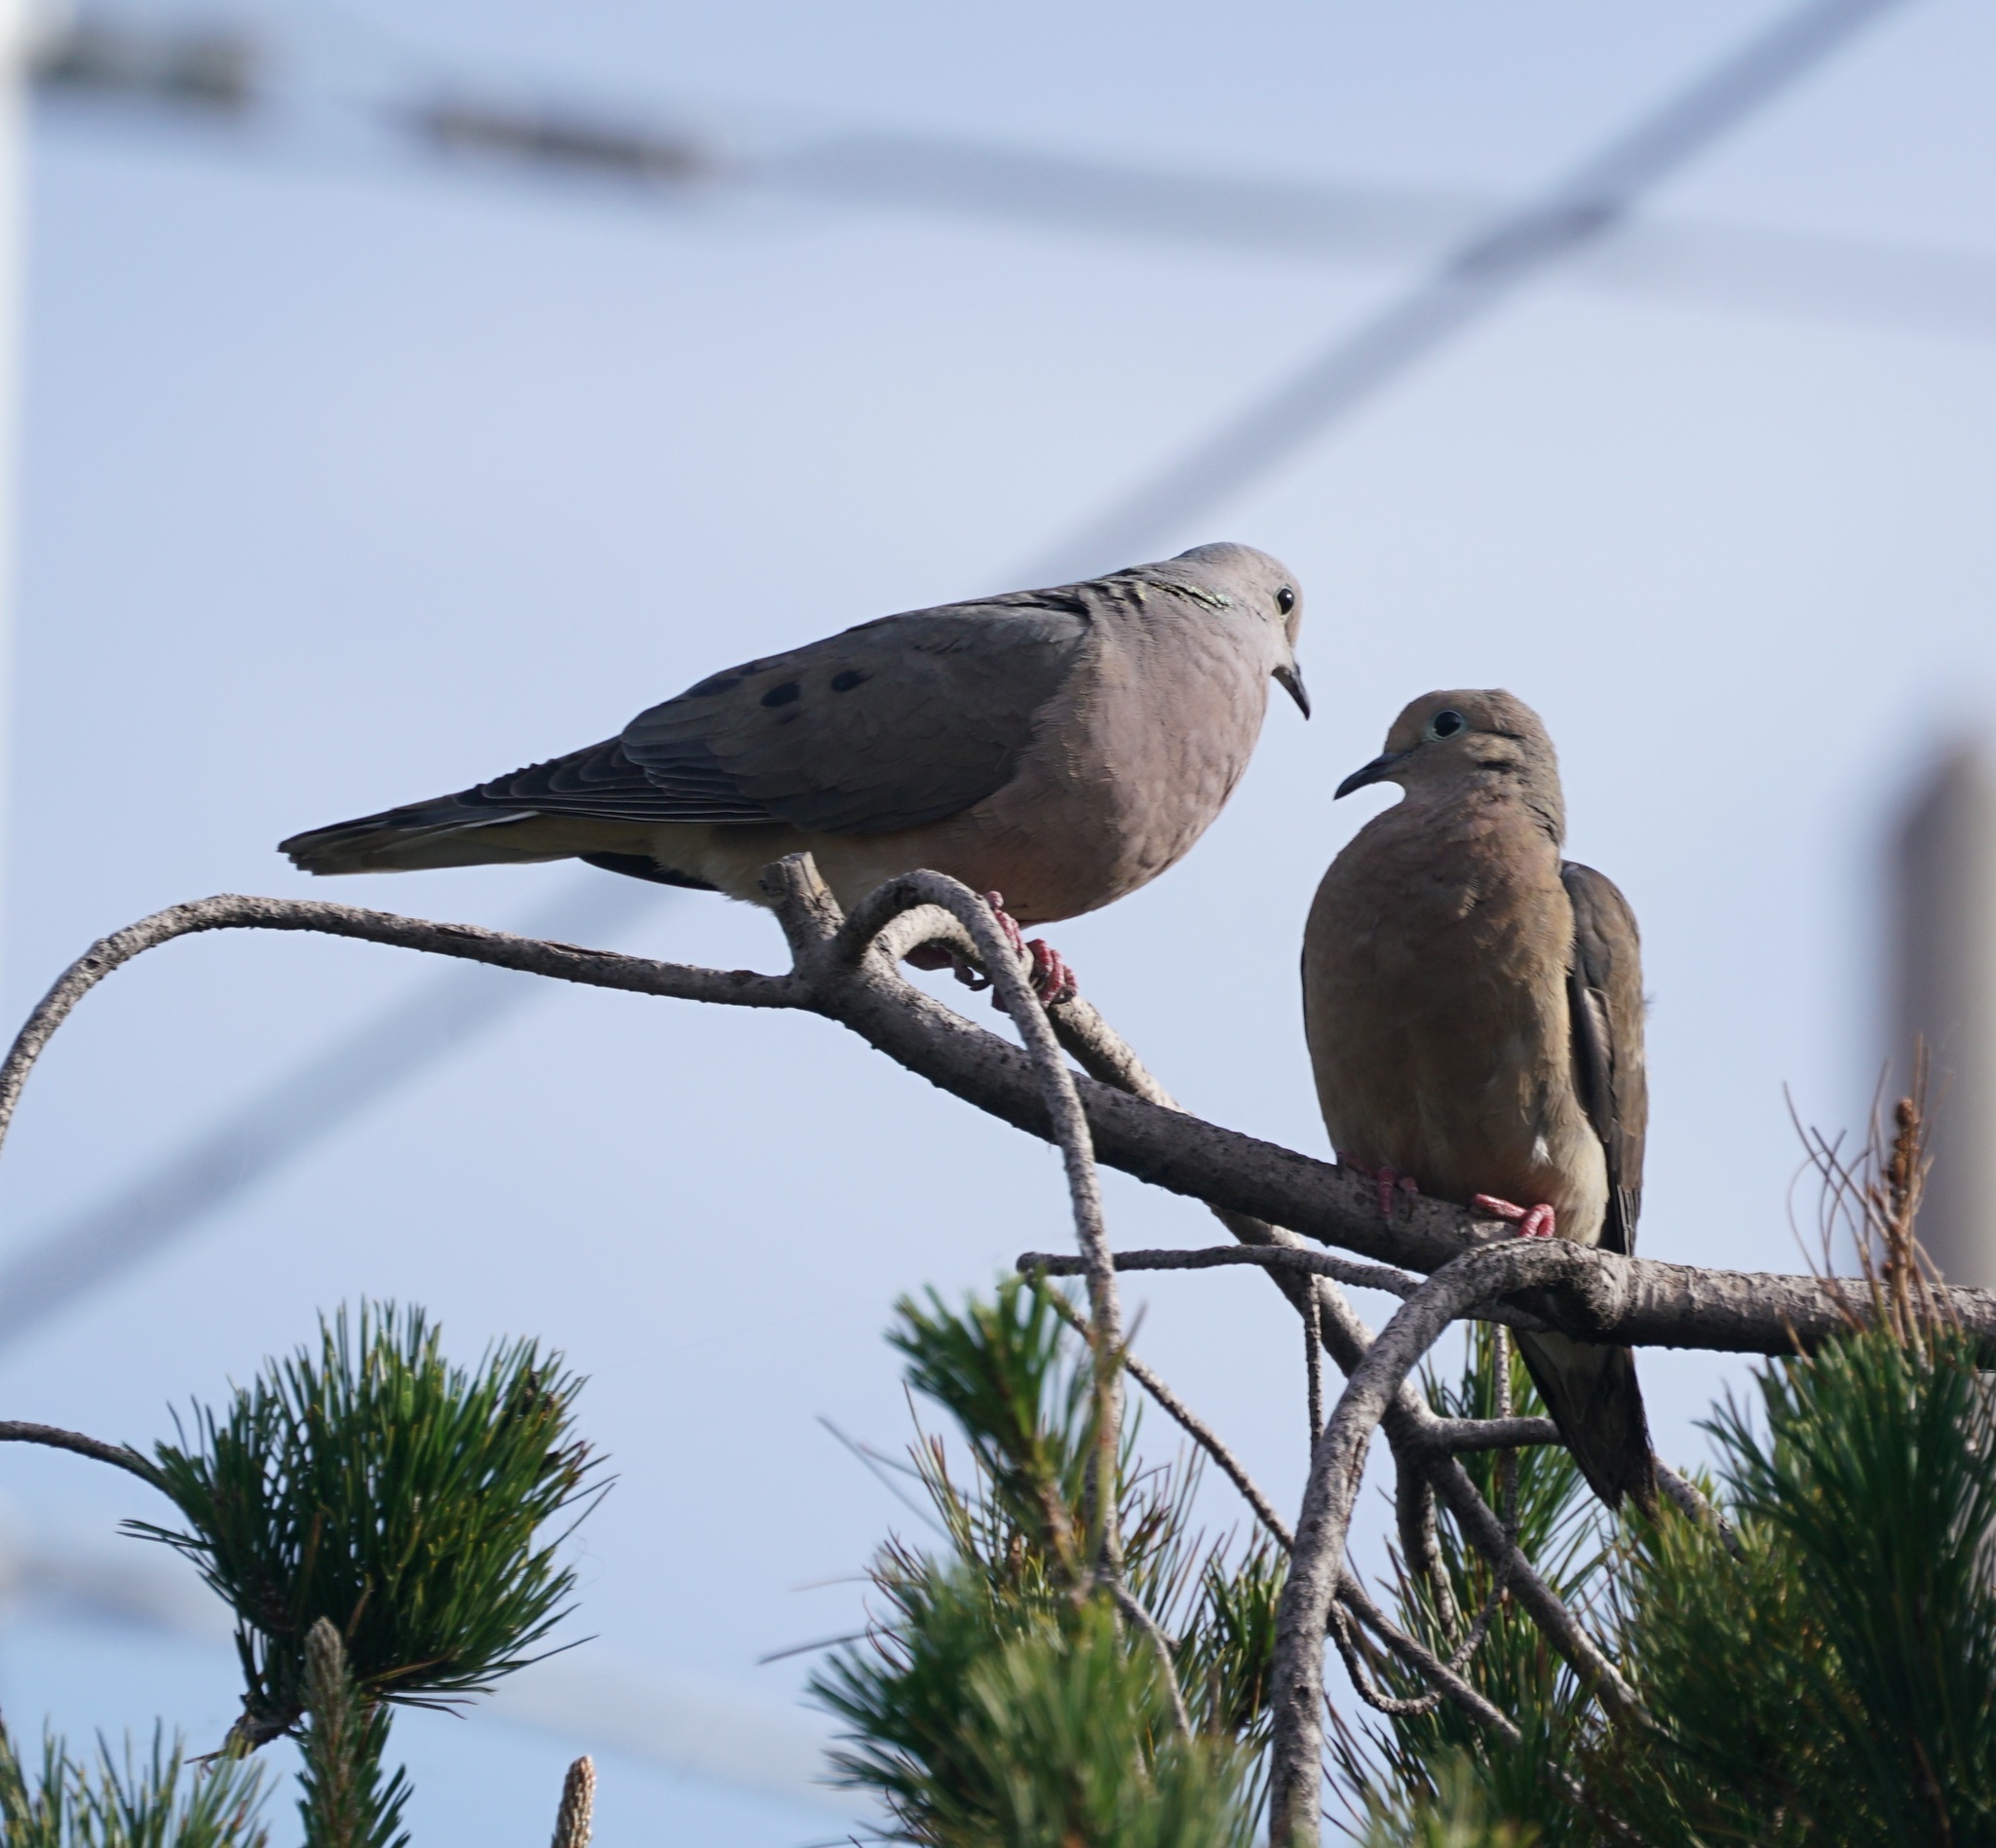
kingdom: Animalia
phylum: Chordata
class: Aves
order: Columbiformes
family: Columbidae
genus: Zenaida
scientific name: Zenaida auriculata
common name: Eared dove
